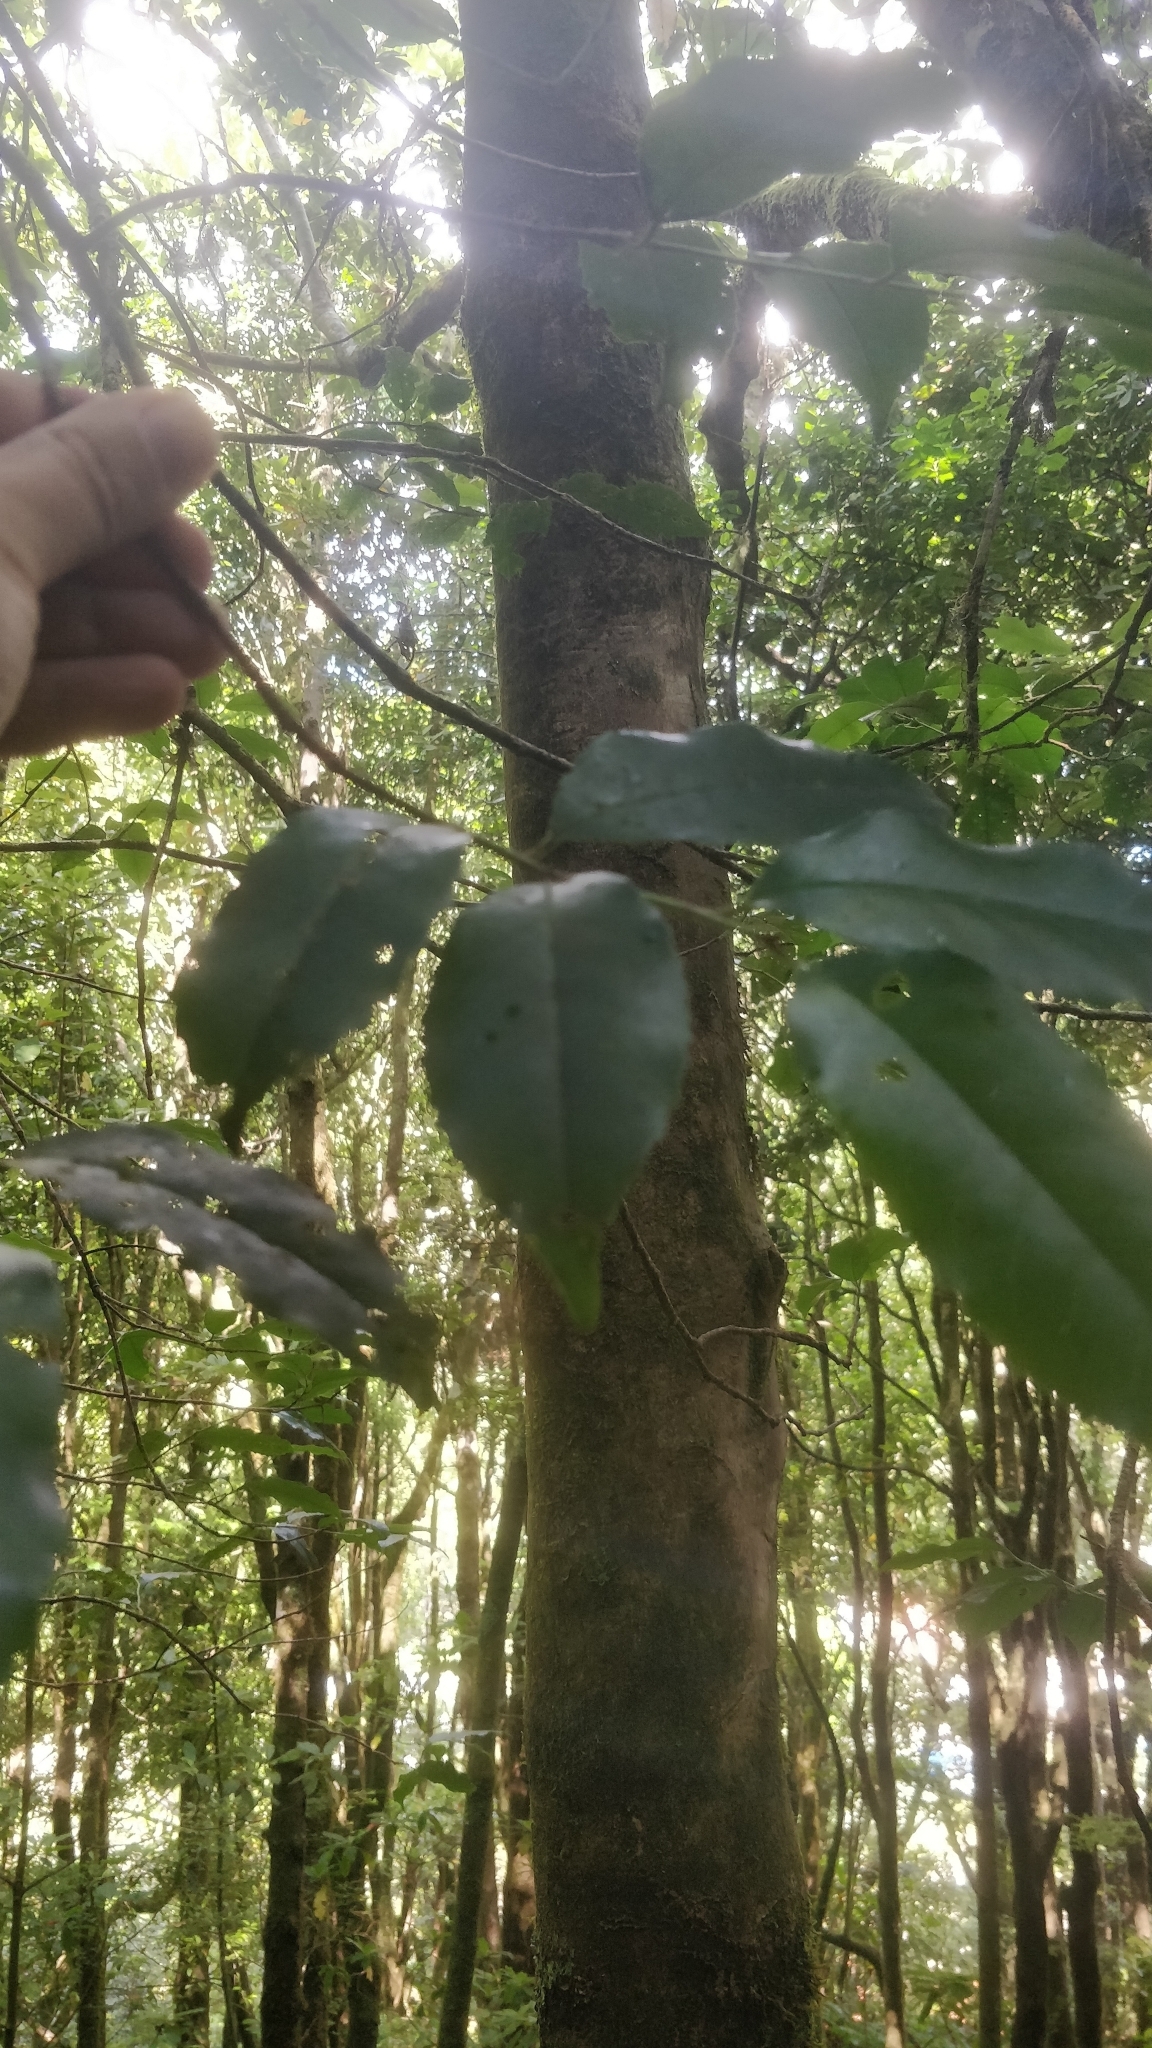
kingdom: Plantae
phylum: Tracheophyta
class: Magnoliopsida
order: Rosales
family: Rosaceae
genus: Prunus
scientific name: Prunus hixa
